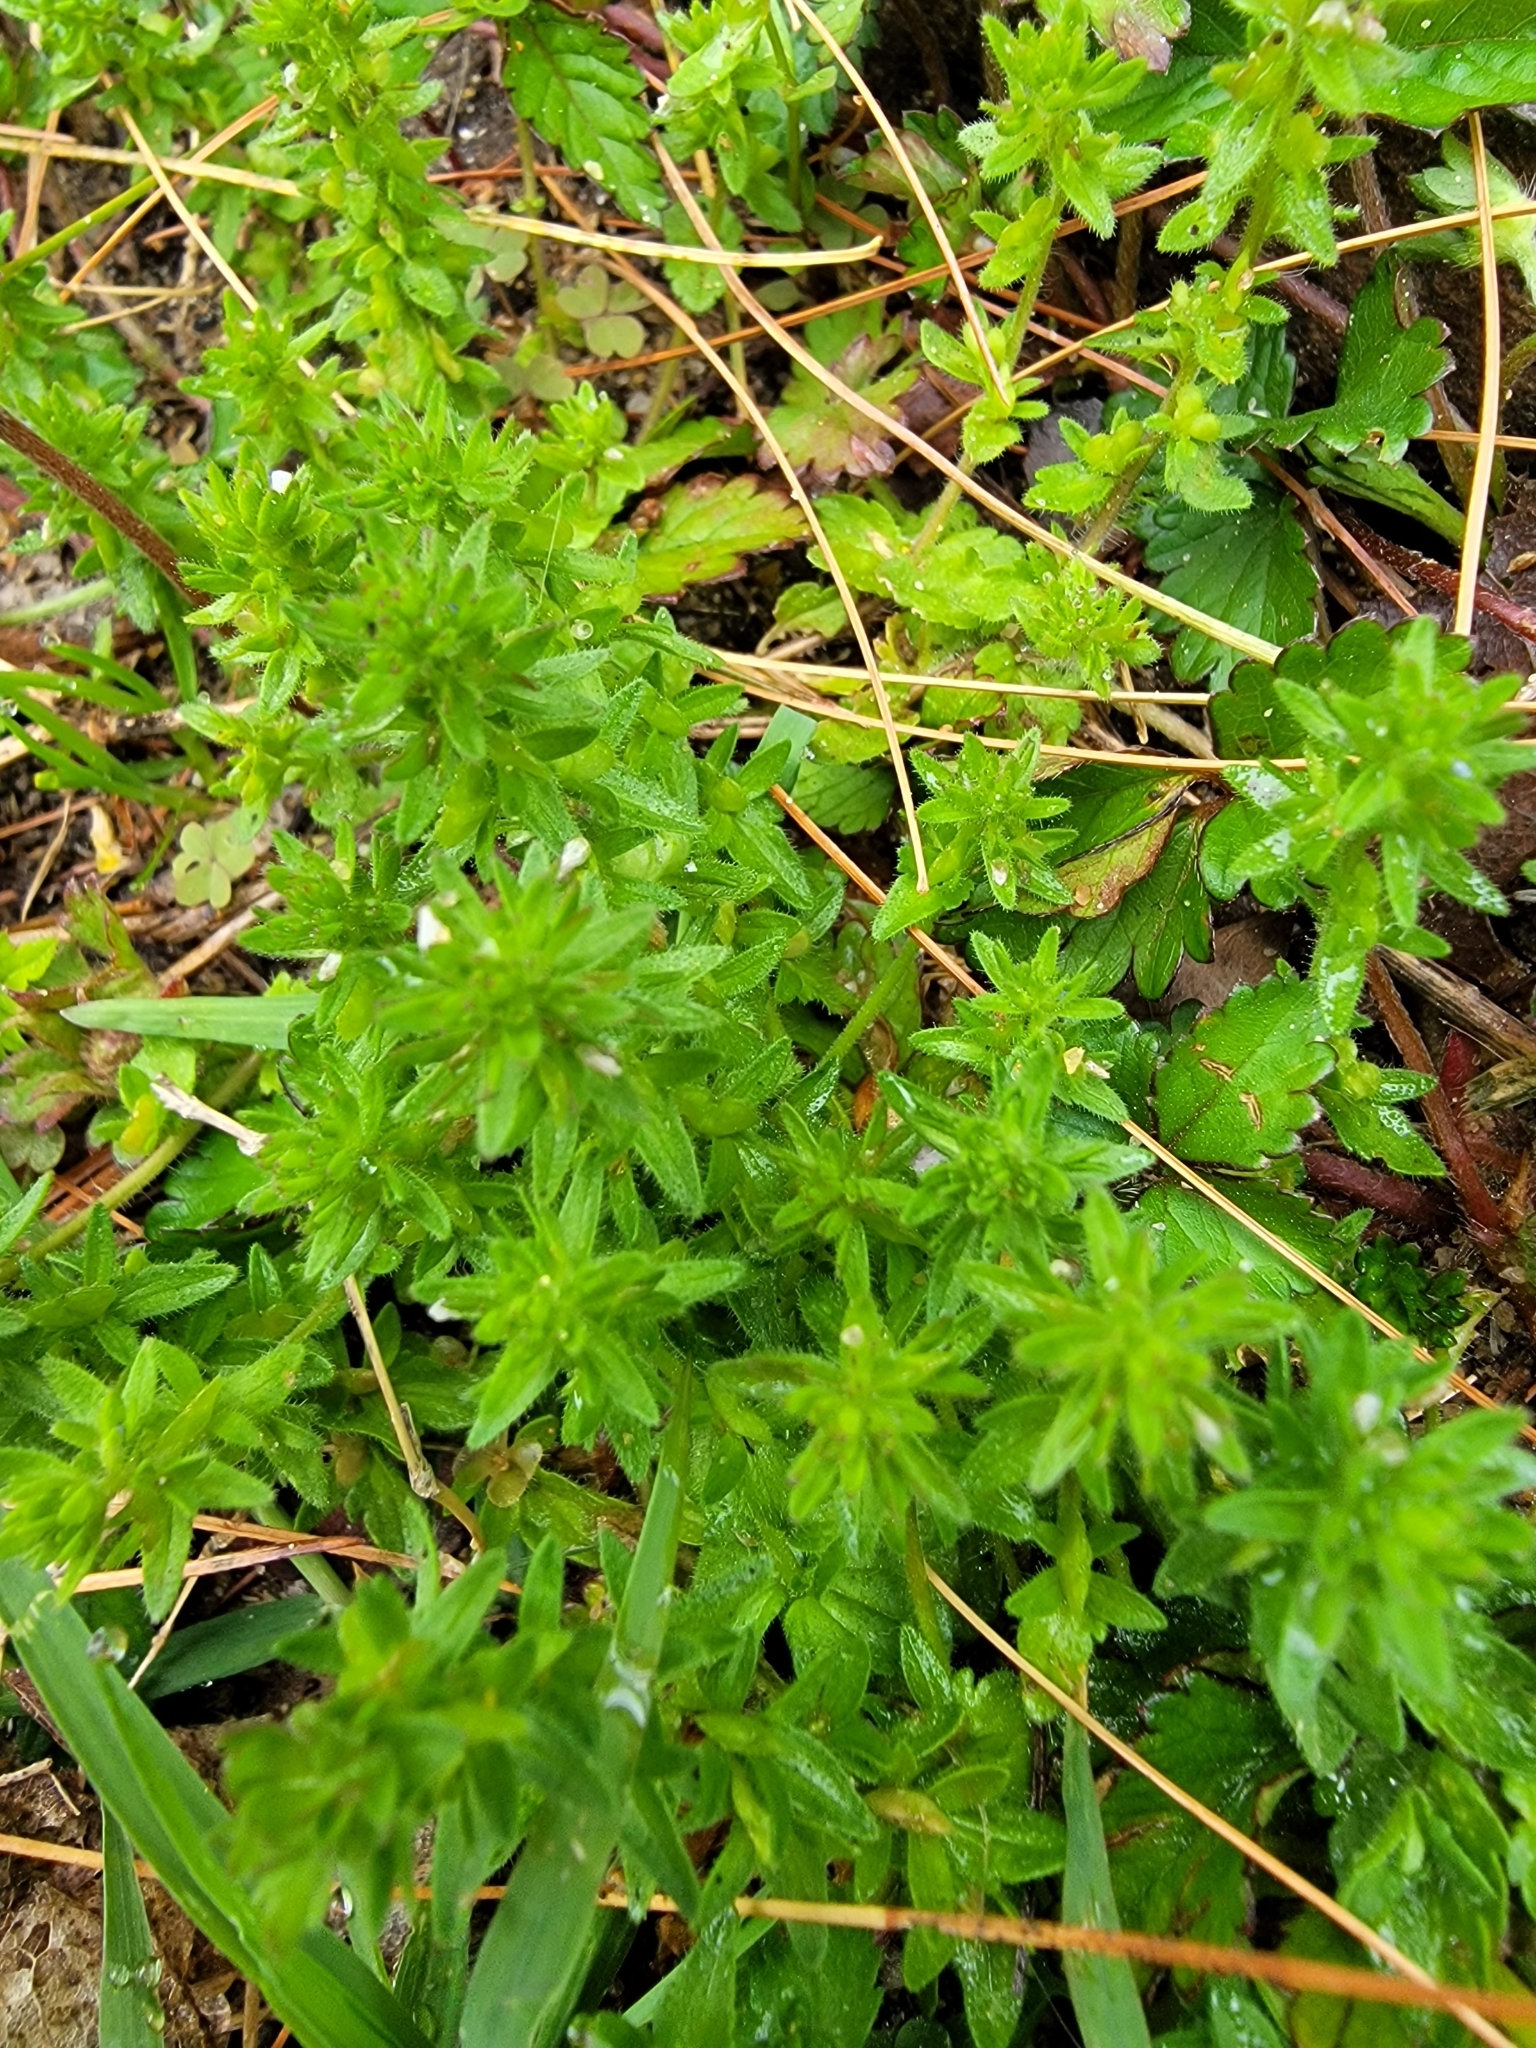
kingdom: Plantae
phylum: Tracheophyta
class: Magnoliopsida
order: Lamiales
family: Plantaginaceae
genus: Veronica
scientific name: Veronica arvensis
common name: Corn speedwell
